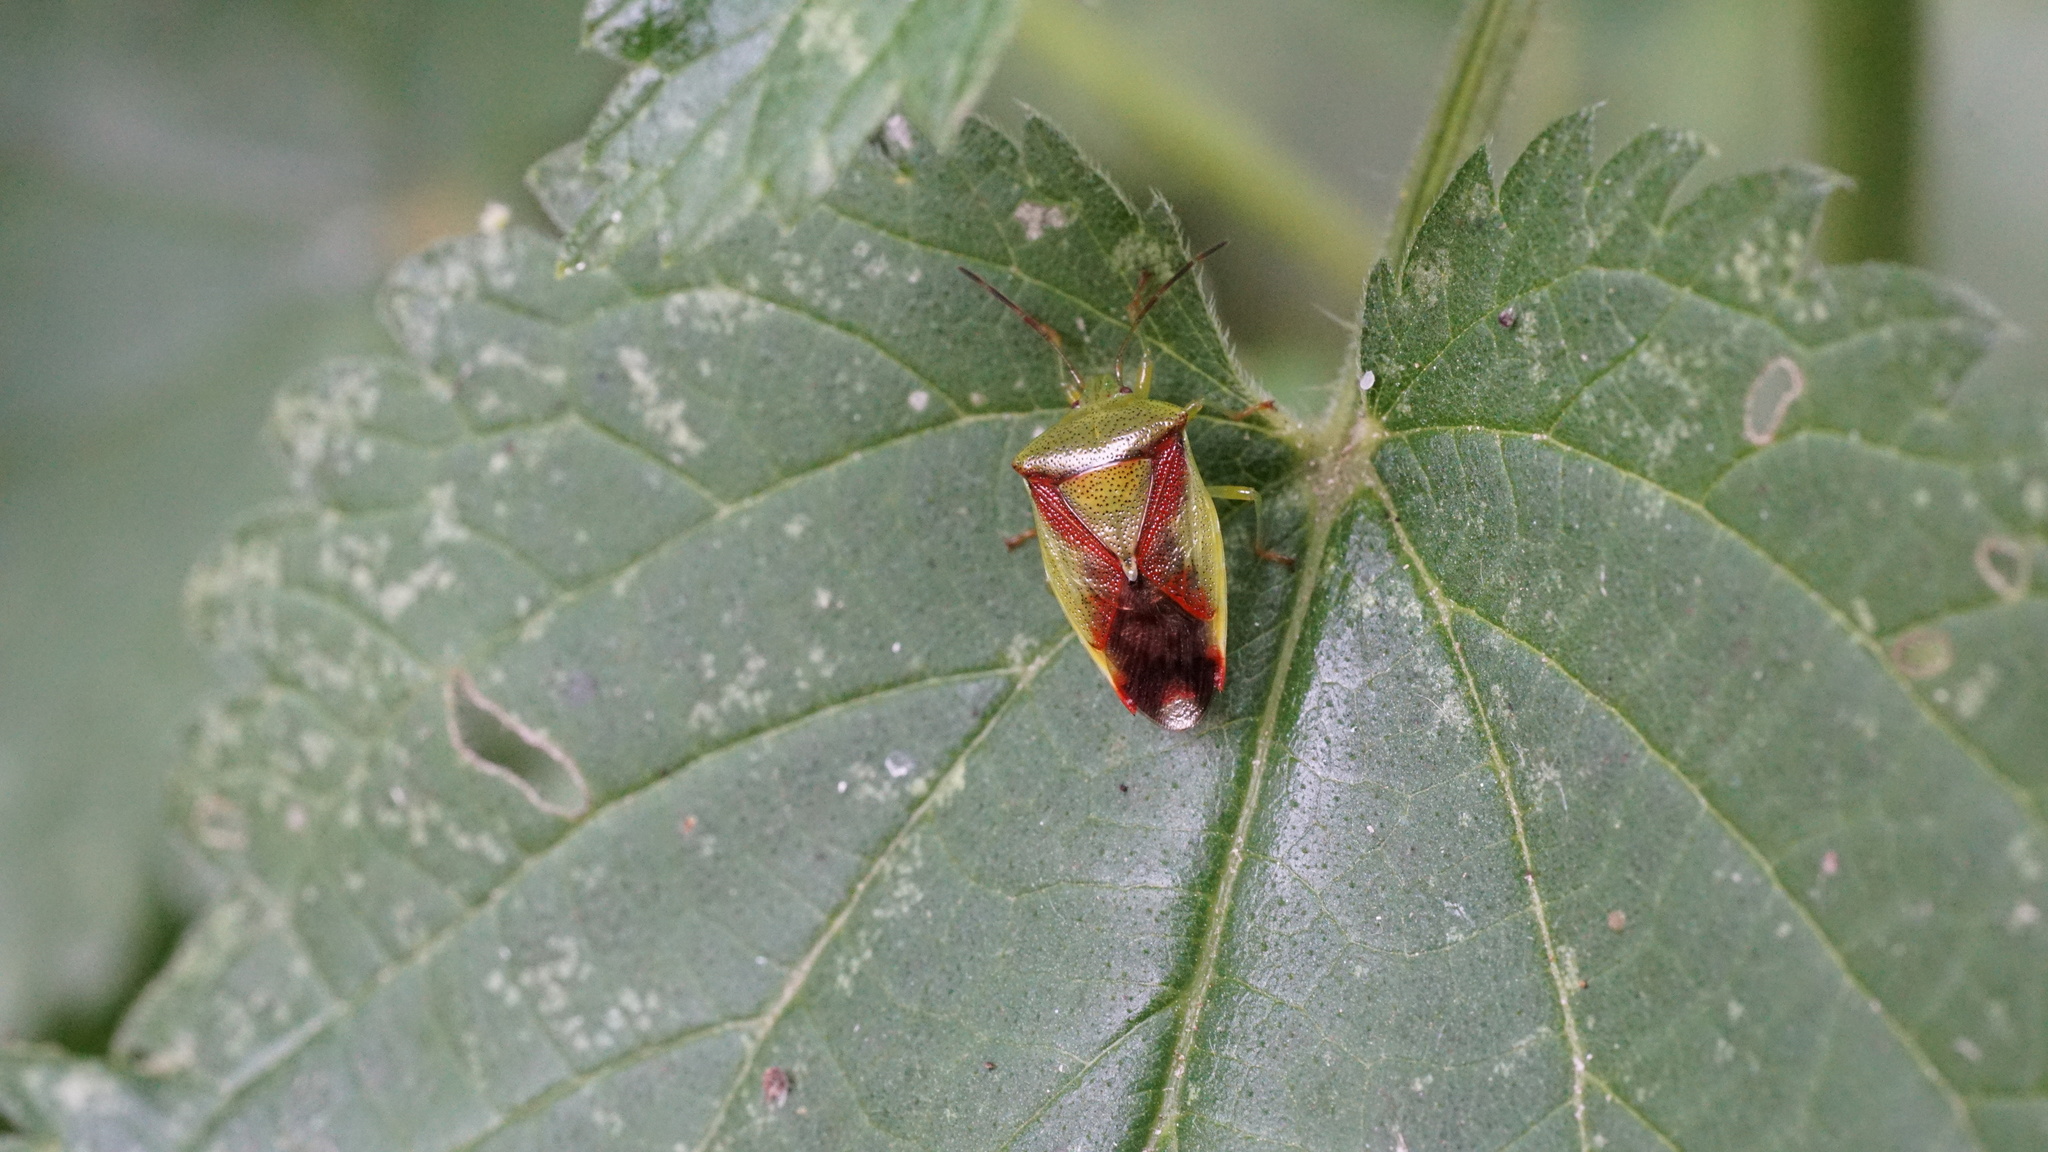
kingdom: Animalia
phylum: Arthropoda
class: Insecta
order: Hemiptera
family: Acanthosomatidae
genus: Elasmostethus
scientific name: Elasmostethus
